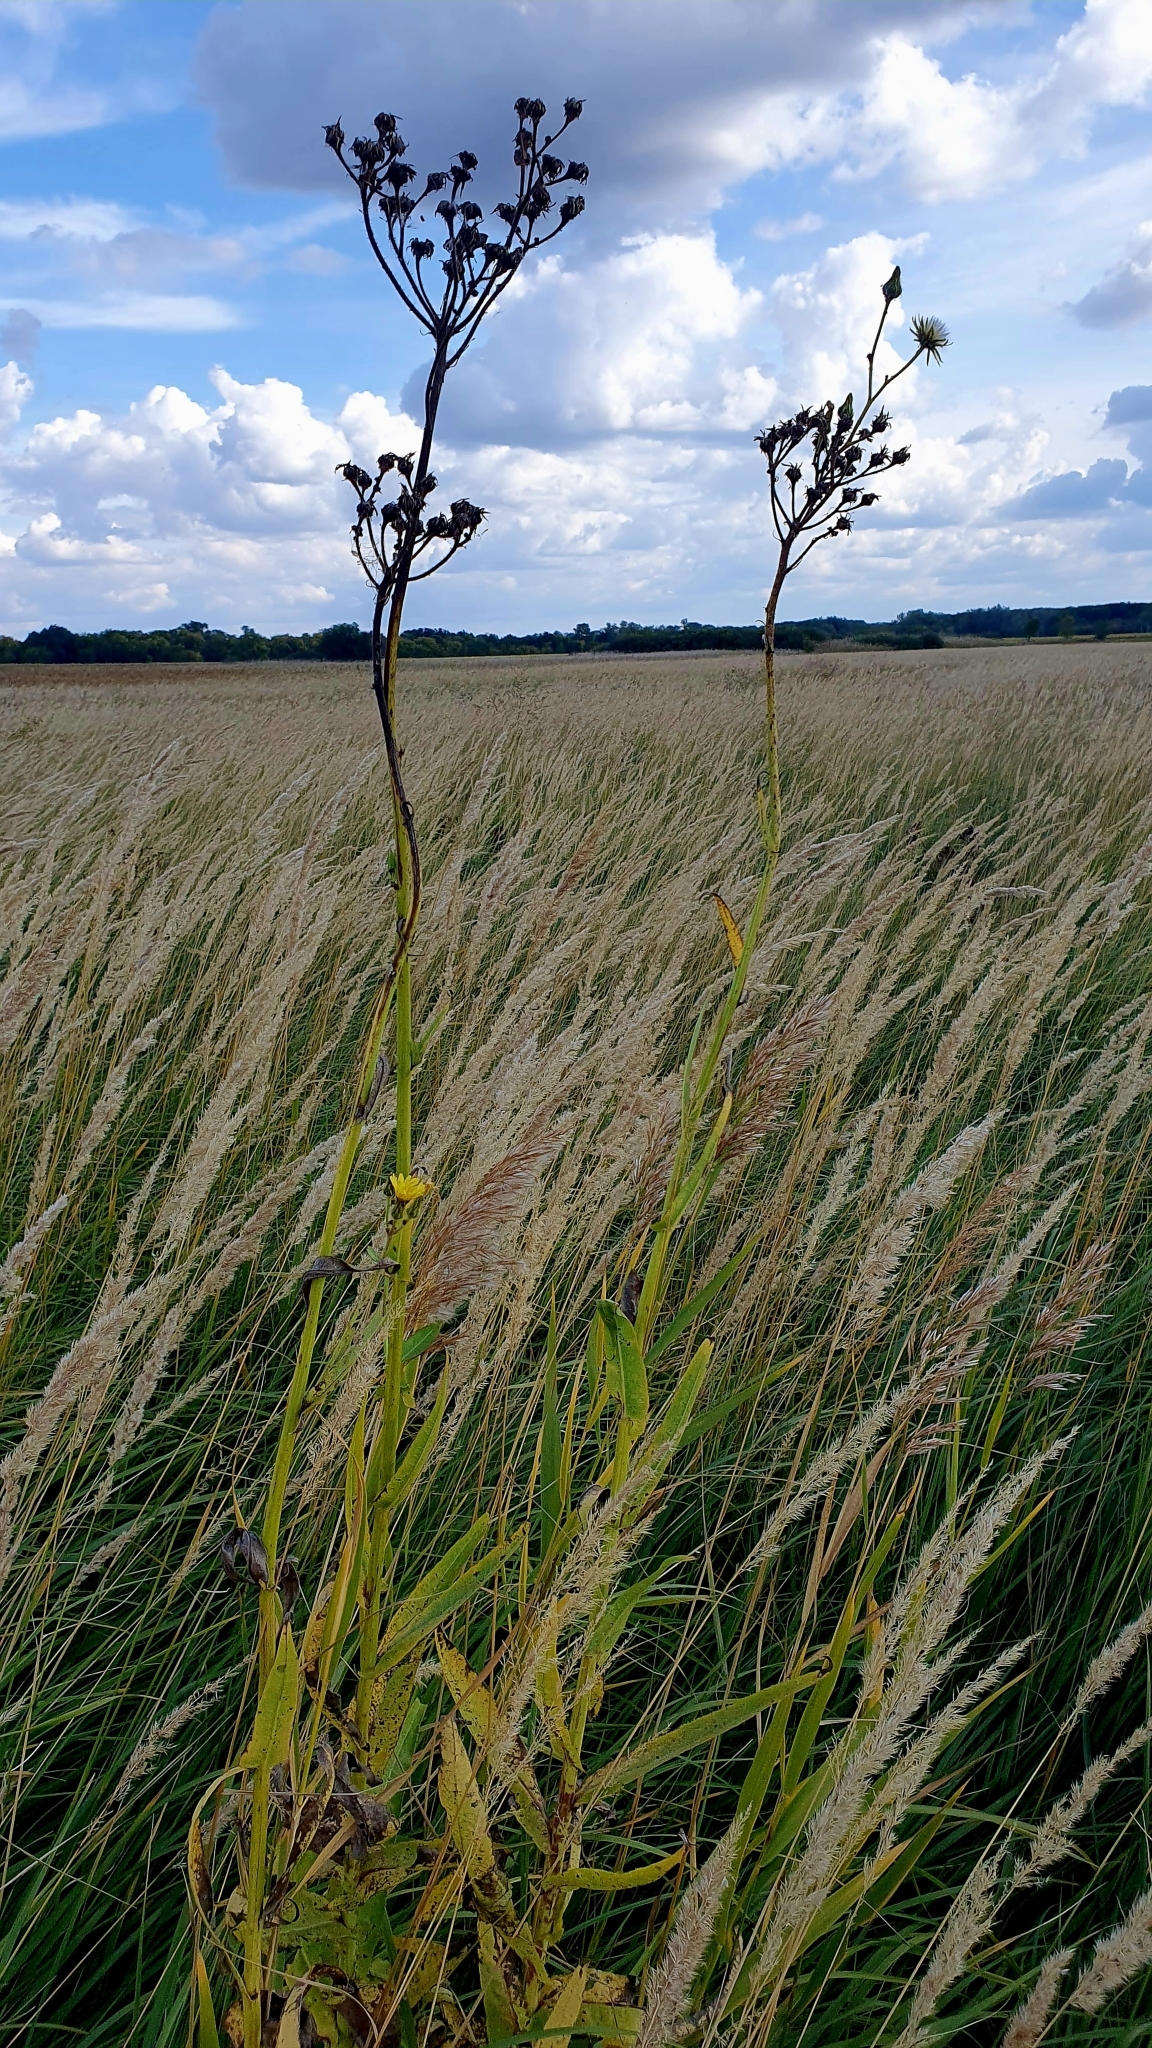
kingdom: Plantae
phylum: Tracheophyta
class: Magnoliopsida
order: Asterales
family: Asteraceae
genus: Sonchus
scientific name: Sonchus palustris
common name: Marsh sow-thistle
